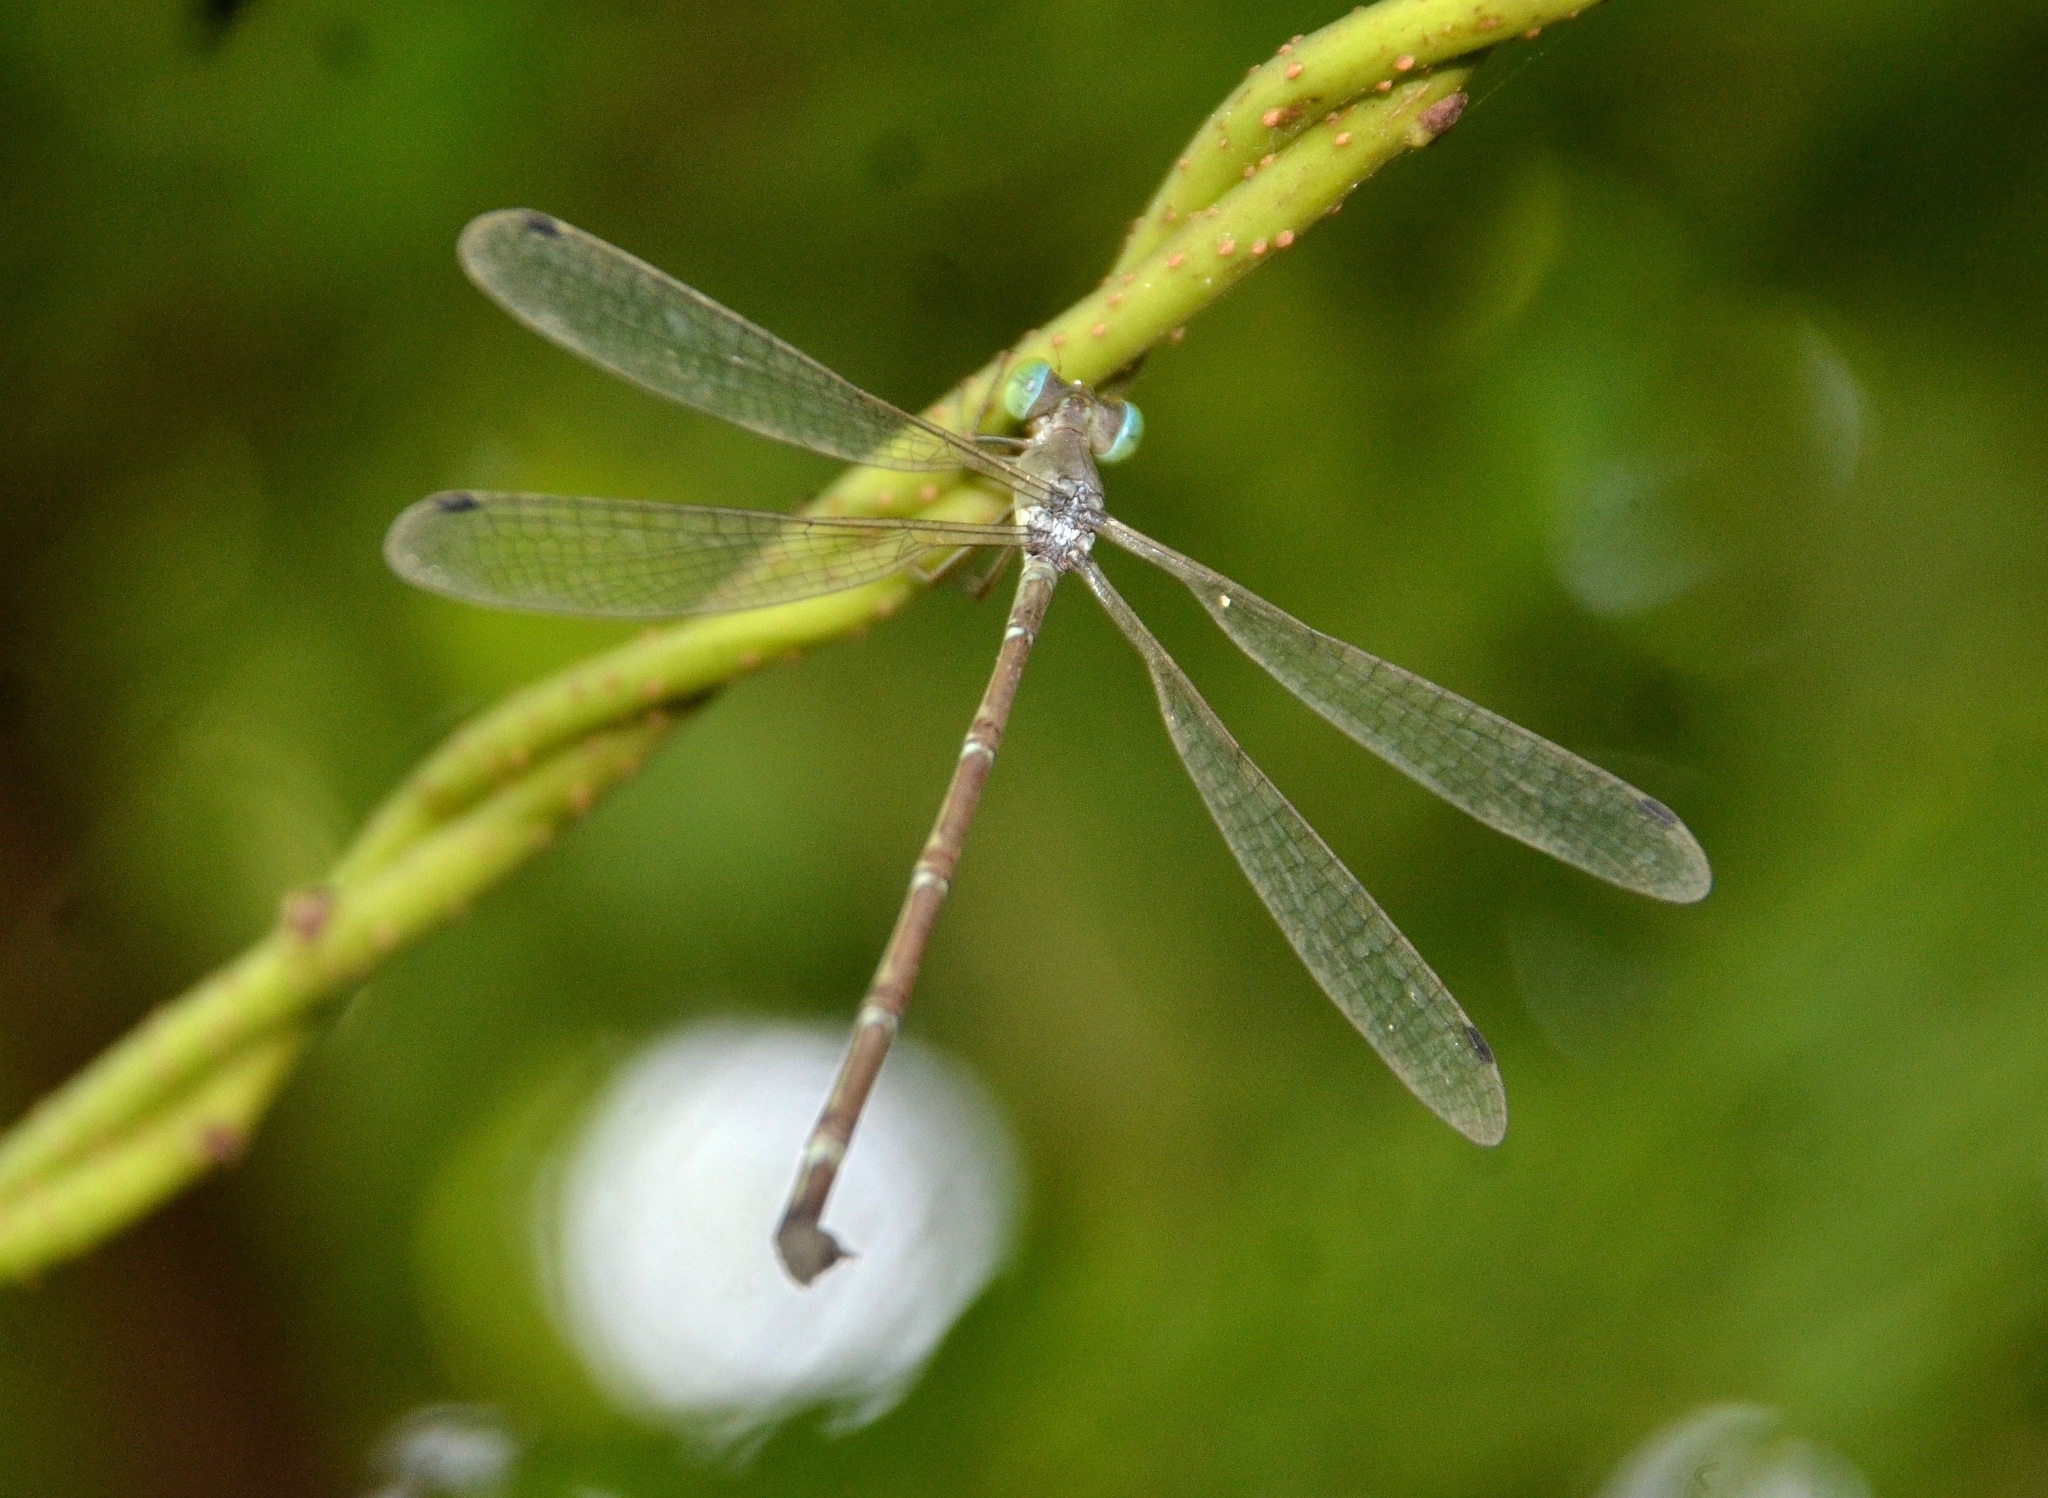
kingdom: Animalia
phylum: Arthropoda
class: Insecta
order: Odonata
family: Lestidae
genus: Platylestes
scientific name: Platylestes platystylus
